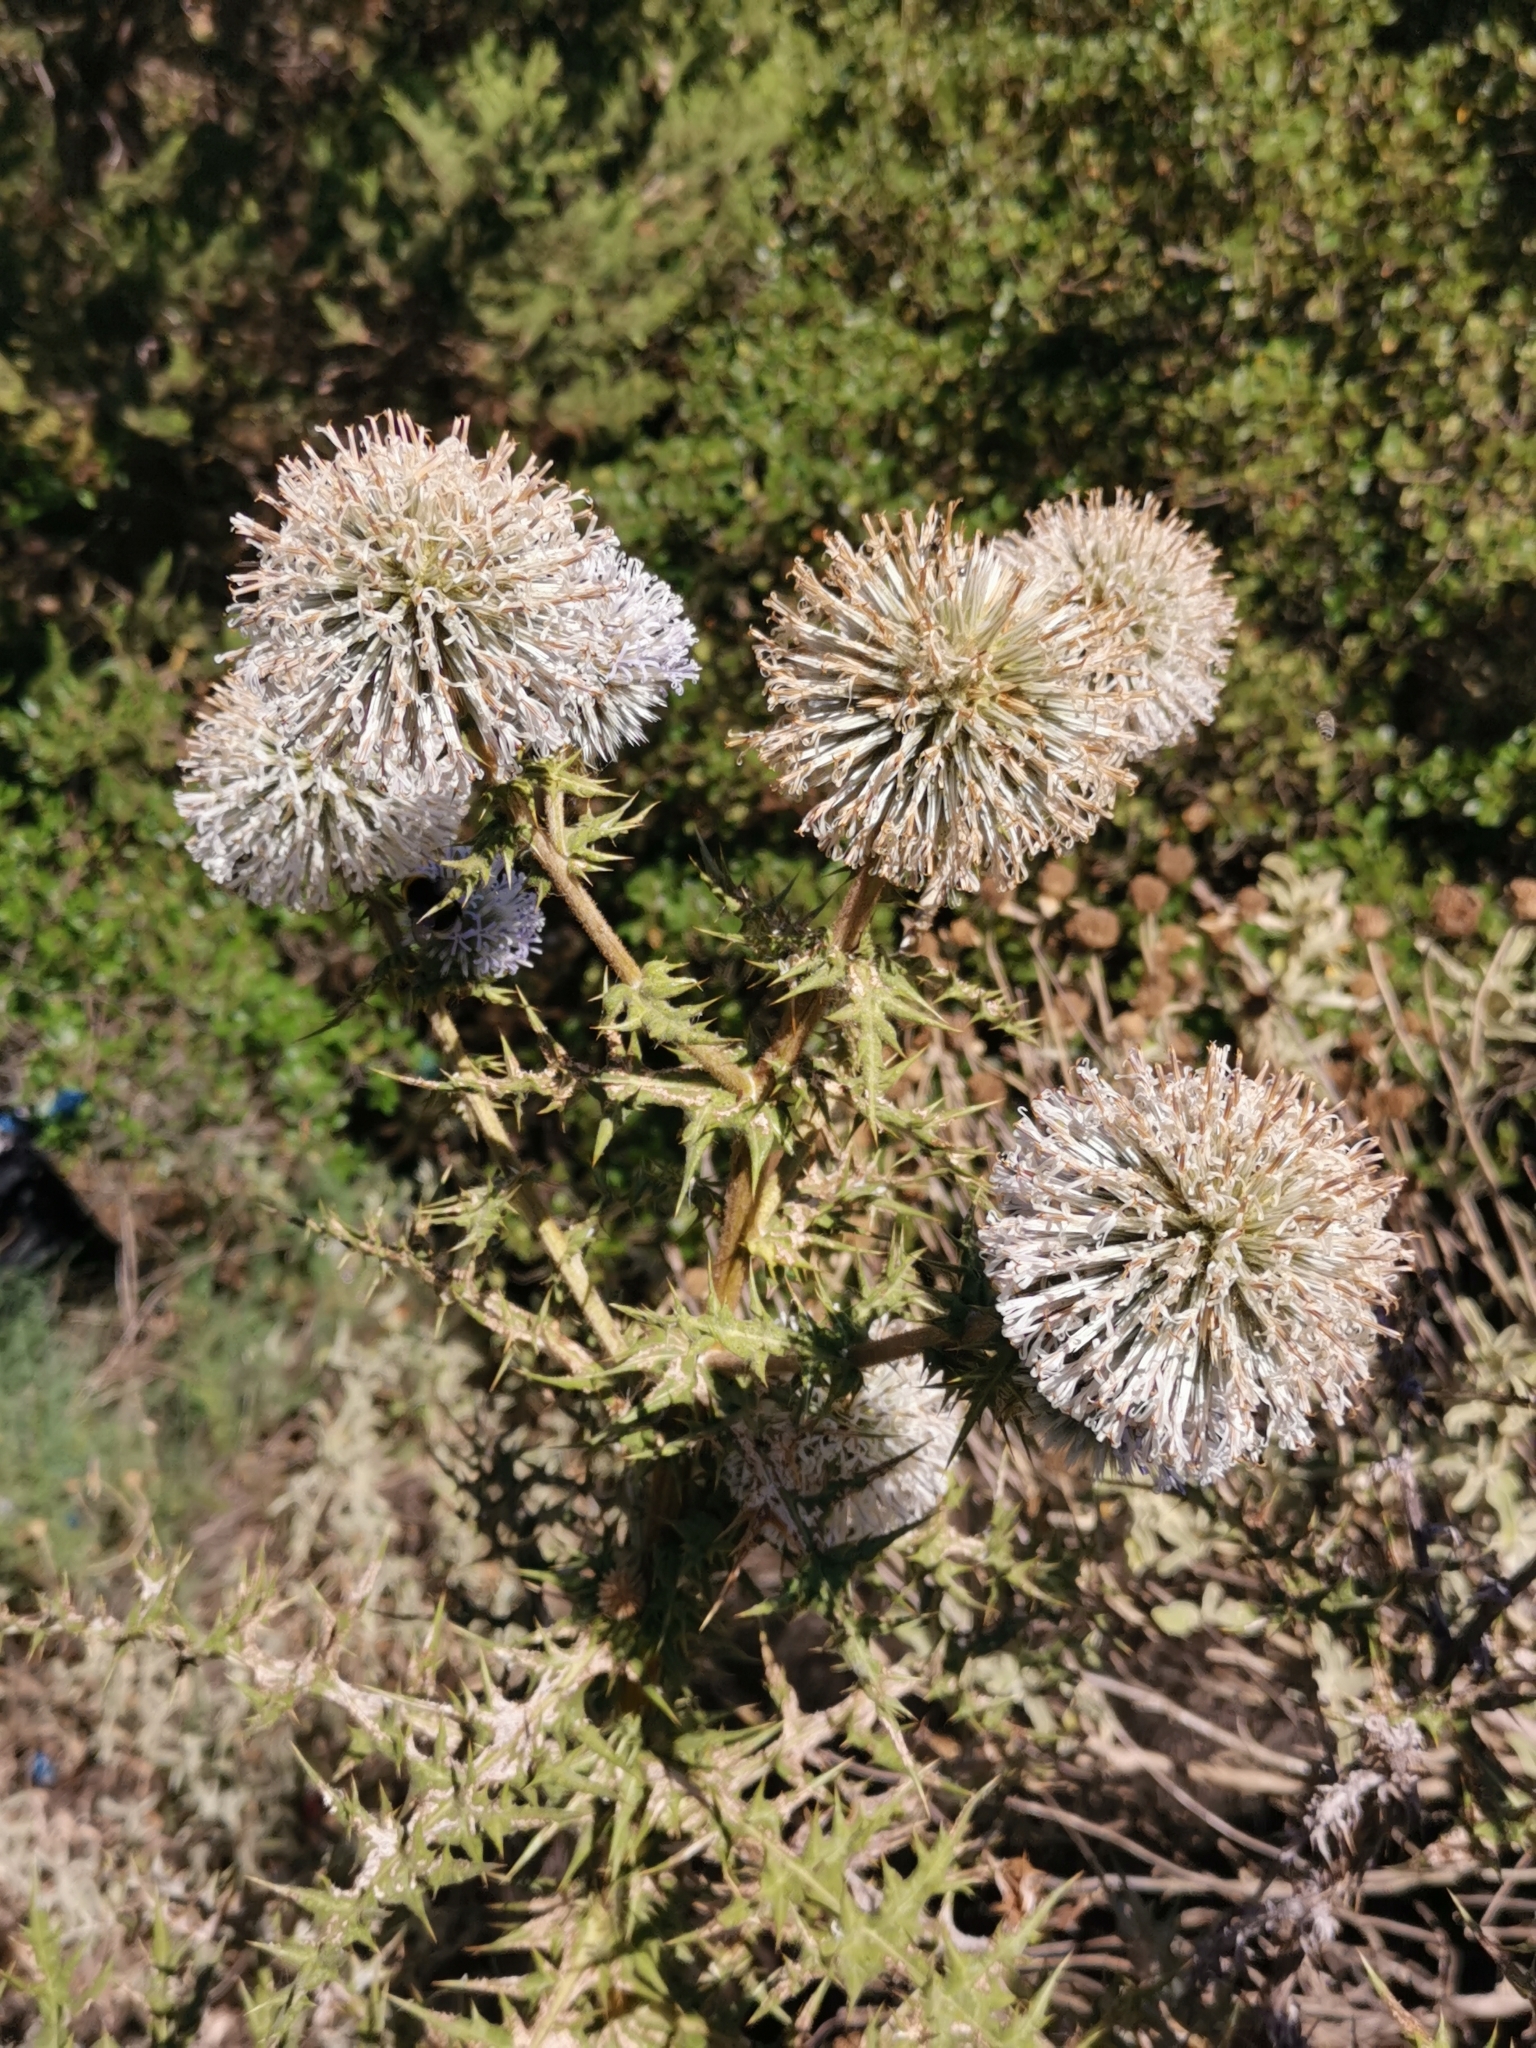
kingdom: Plantae
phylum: Tracheophyta
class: Magnoliopsida
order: Asterales
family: Asteraceae
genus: Echinops
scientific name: Echinops spinosissimus
